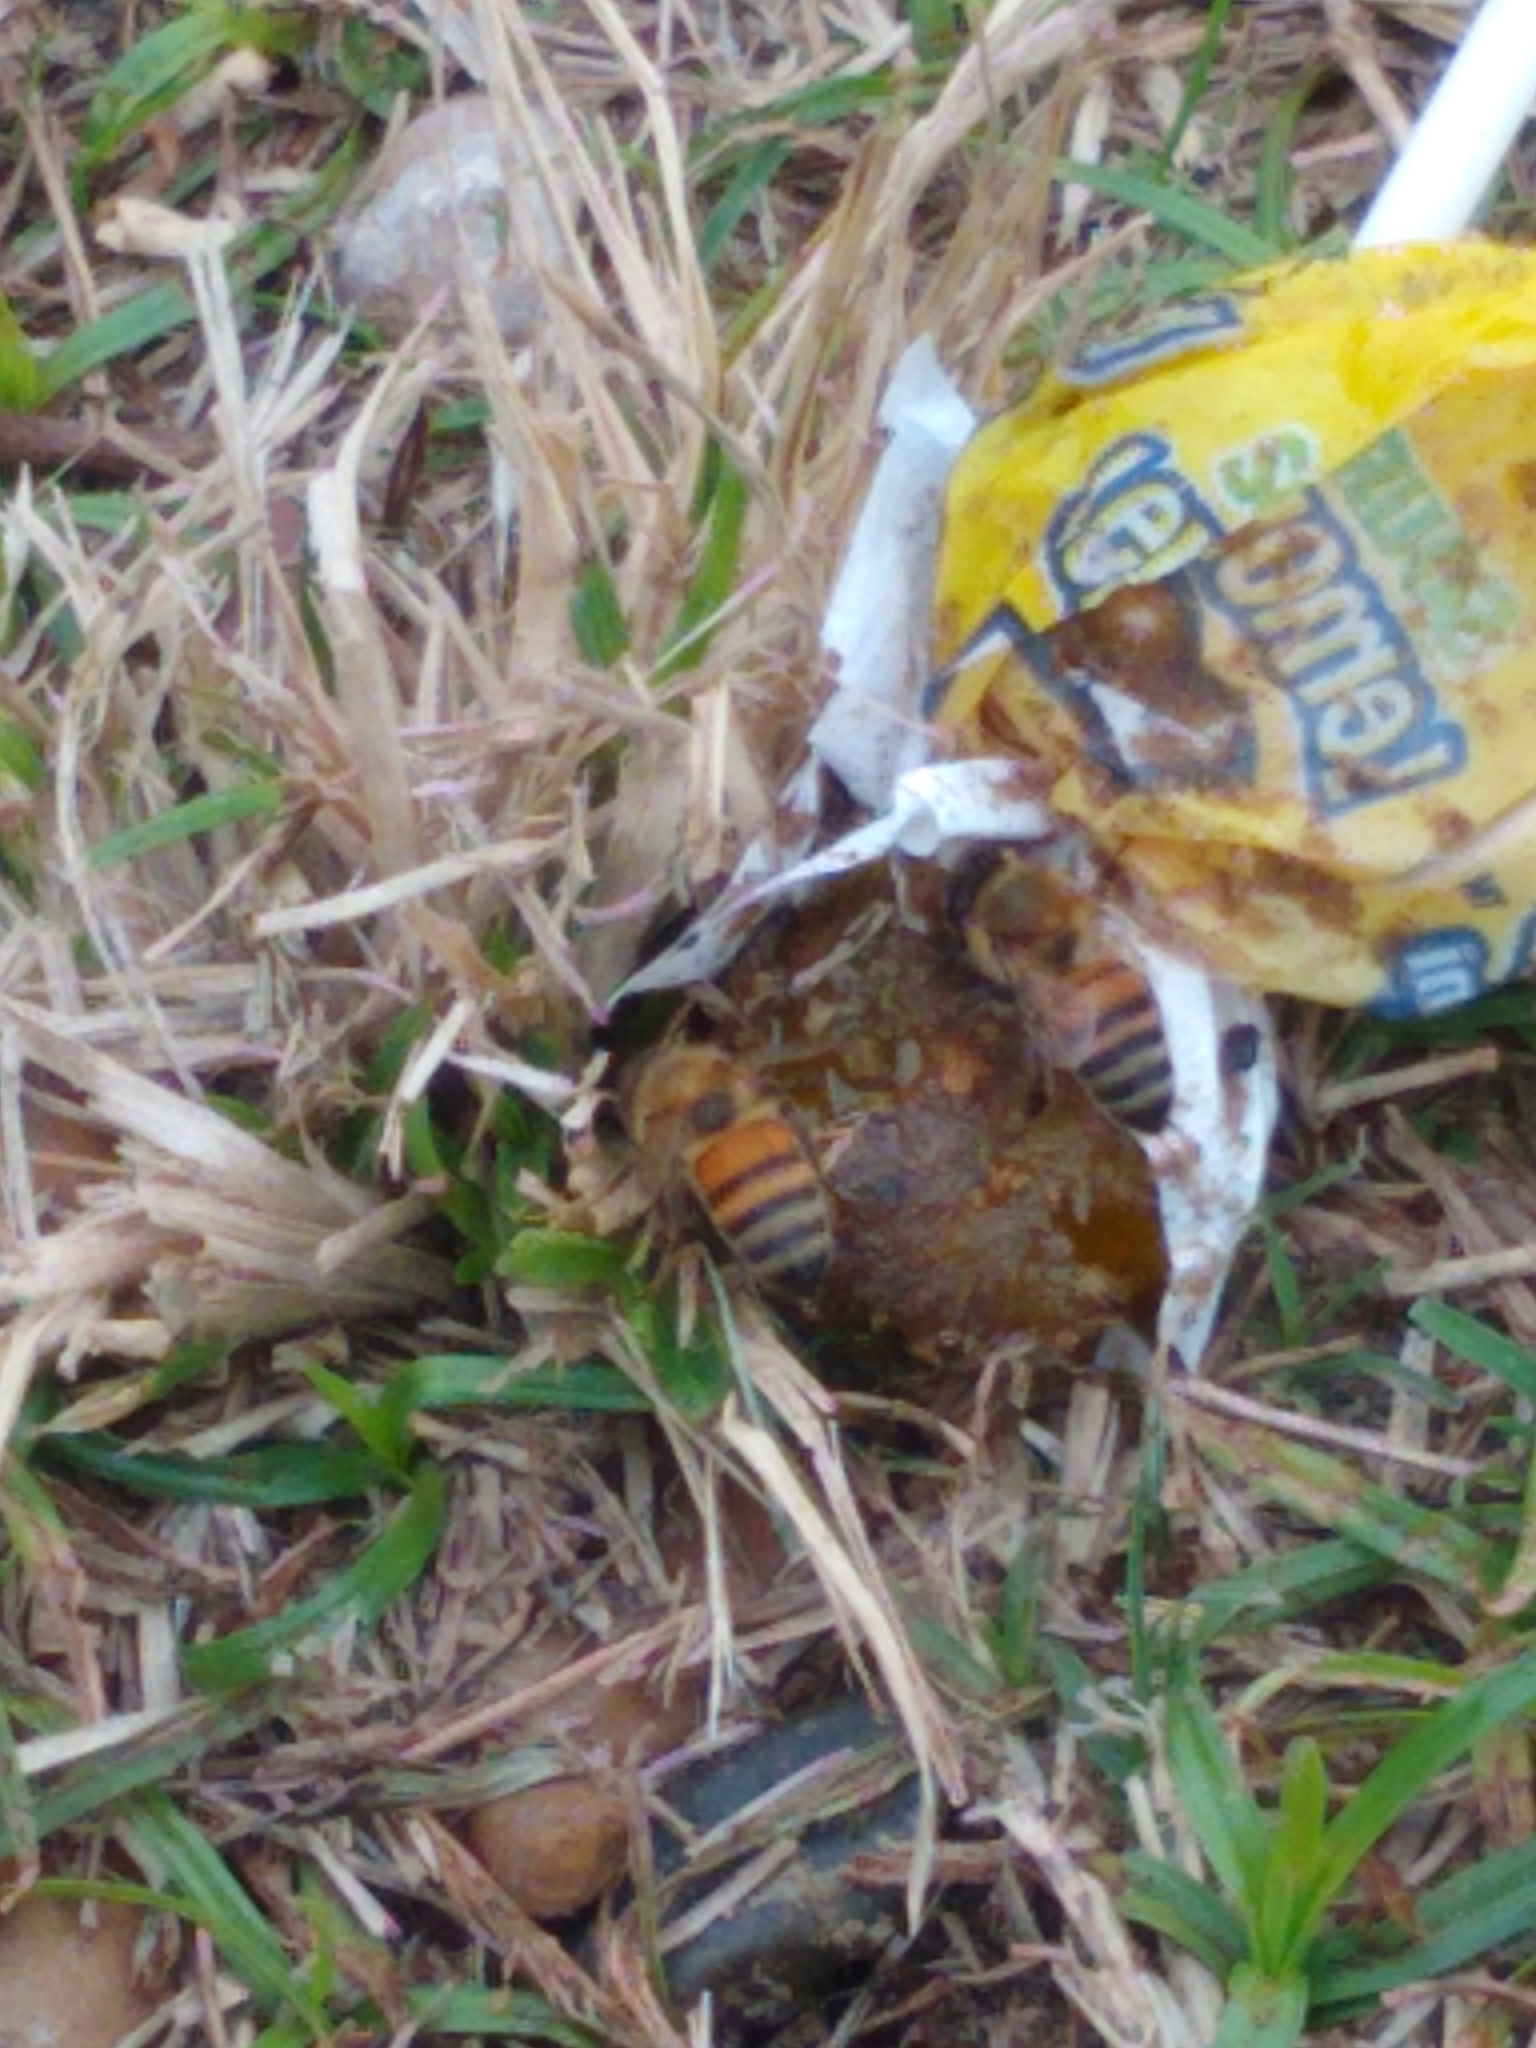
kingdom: Animalia
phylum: Arthropoda
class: Insecta
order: Hymenoptera
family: Apidae
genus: Apis
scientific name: Apis mellifera
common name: Honey bee
